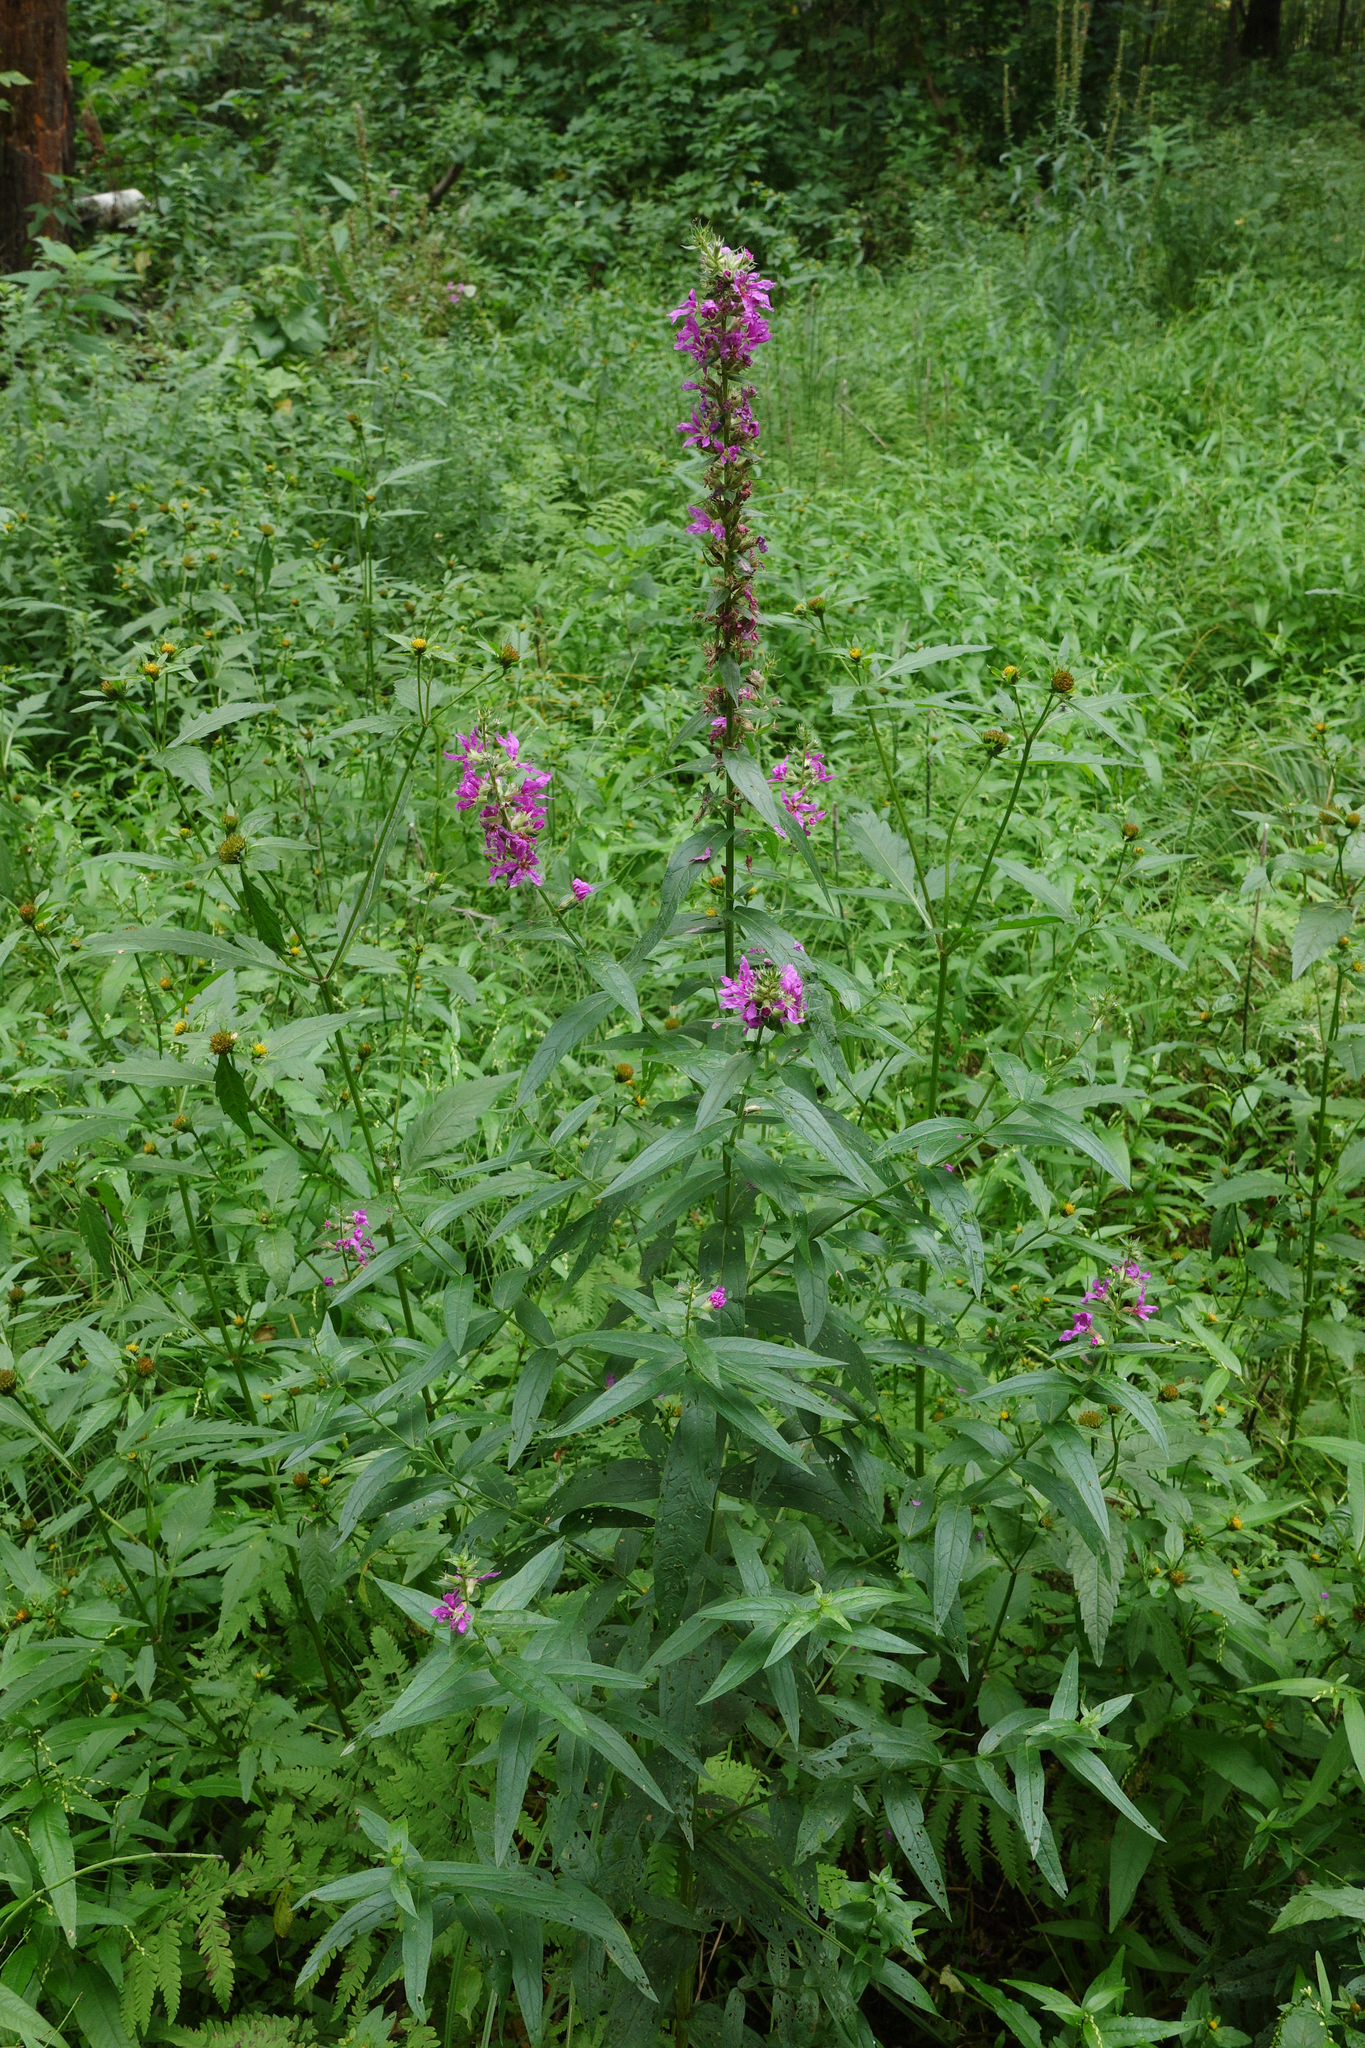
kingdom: Plantae
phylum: Tracheophyta
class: Magnoliopsida
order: Myrtales
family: Lythraceae
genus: Lythrum
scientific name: Lythrum salicaria
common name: Purple loosestrife
